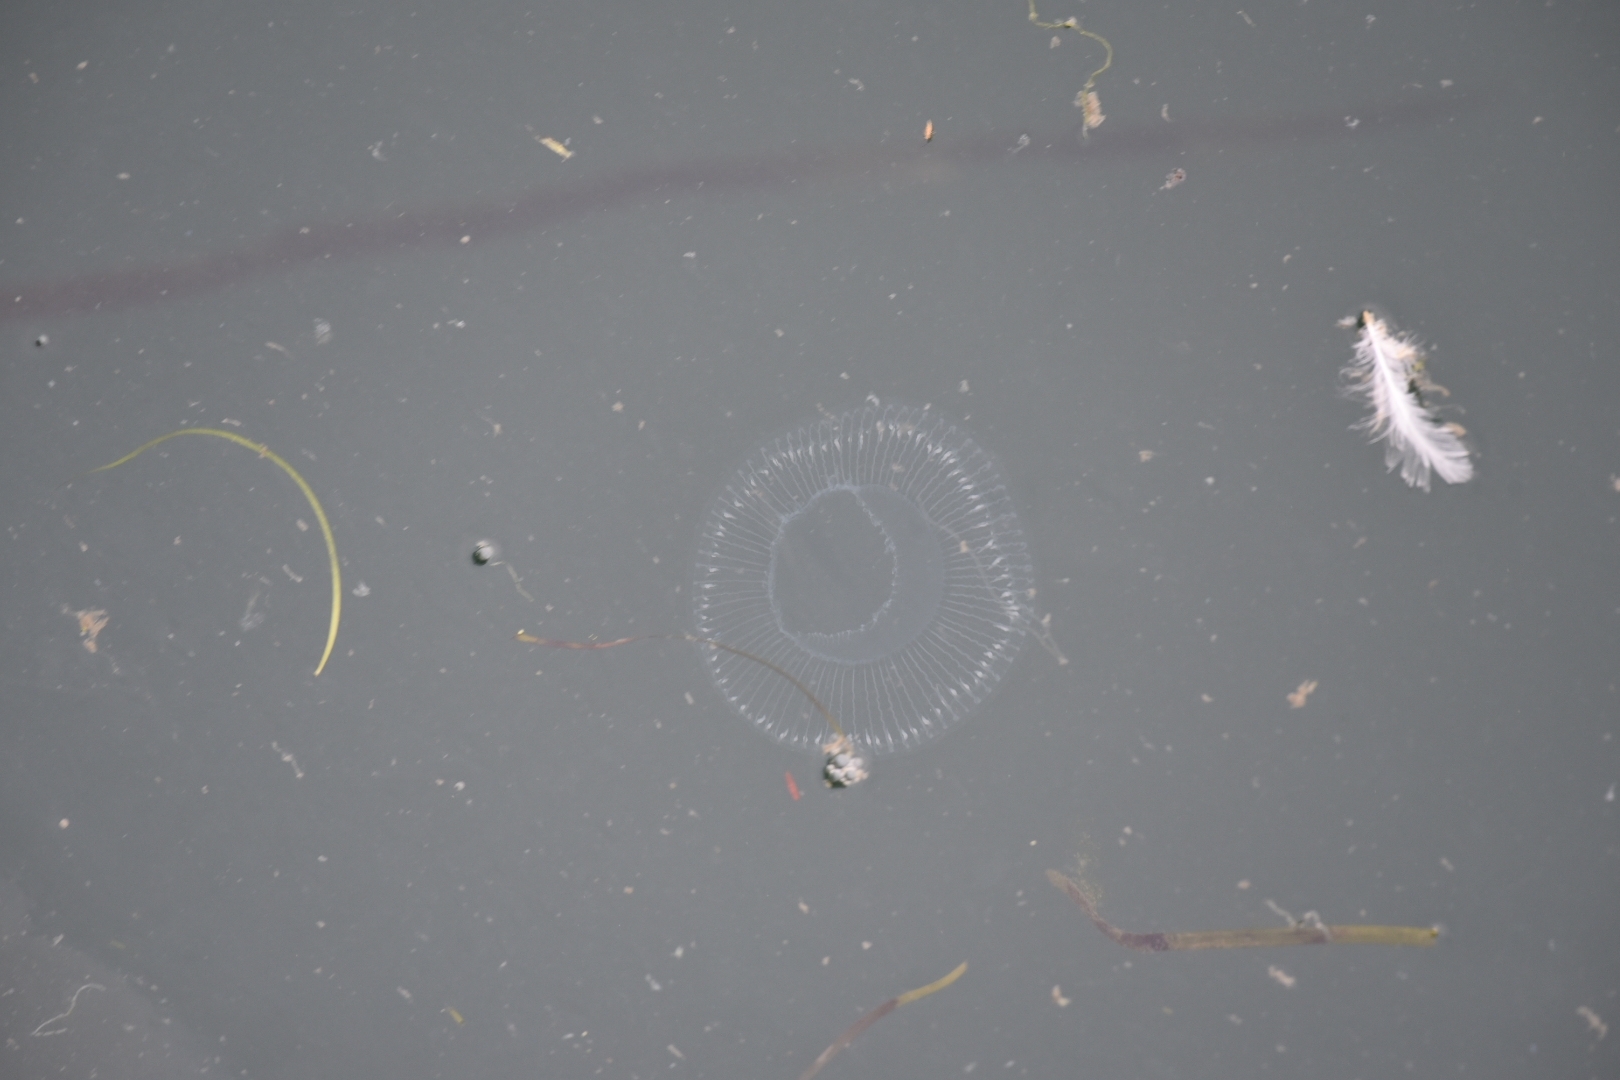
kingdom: Animalia
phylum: Cnidaria
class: Hydrozoa
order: Leptothecata
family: Aequoreidae
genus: Aequorea
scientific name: Aequorea victoria
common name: Water jellyfish
